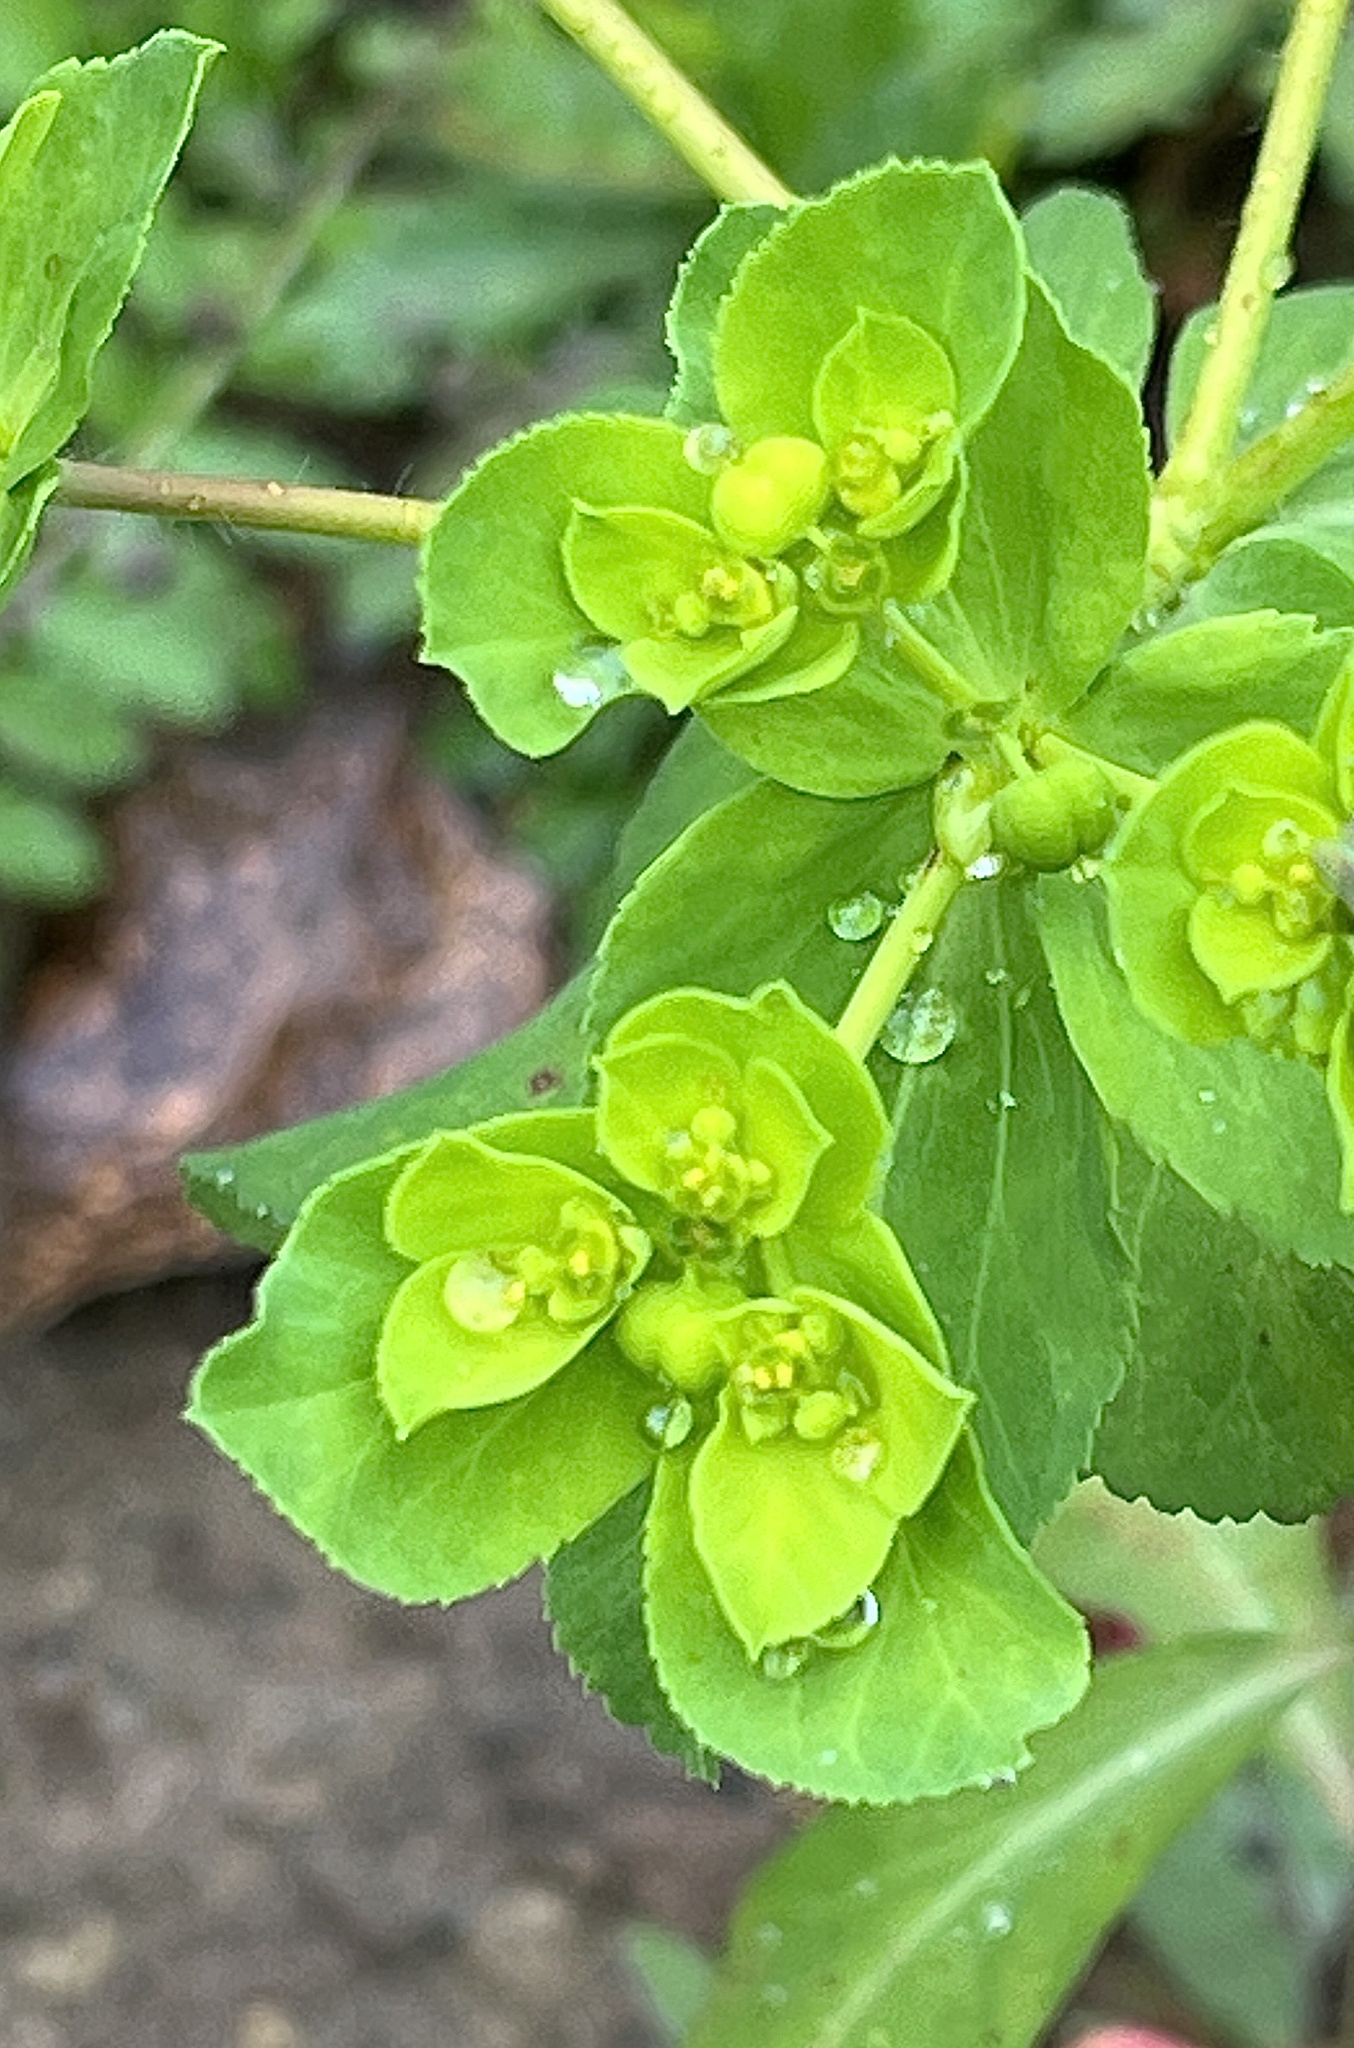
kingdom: Plantae
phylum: Tracheophyta
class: Magnoliopsida
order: Malpighiales
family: Euphorbiaceae
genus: Euphorbia
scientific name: Euphorbia helioscopia
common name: Sun spurge
